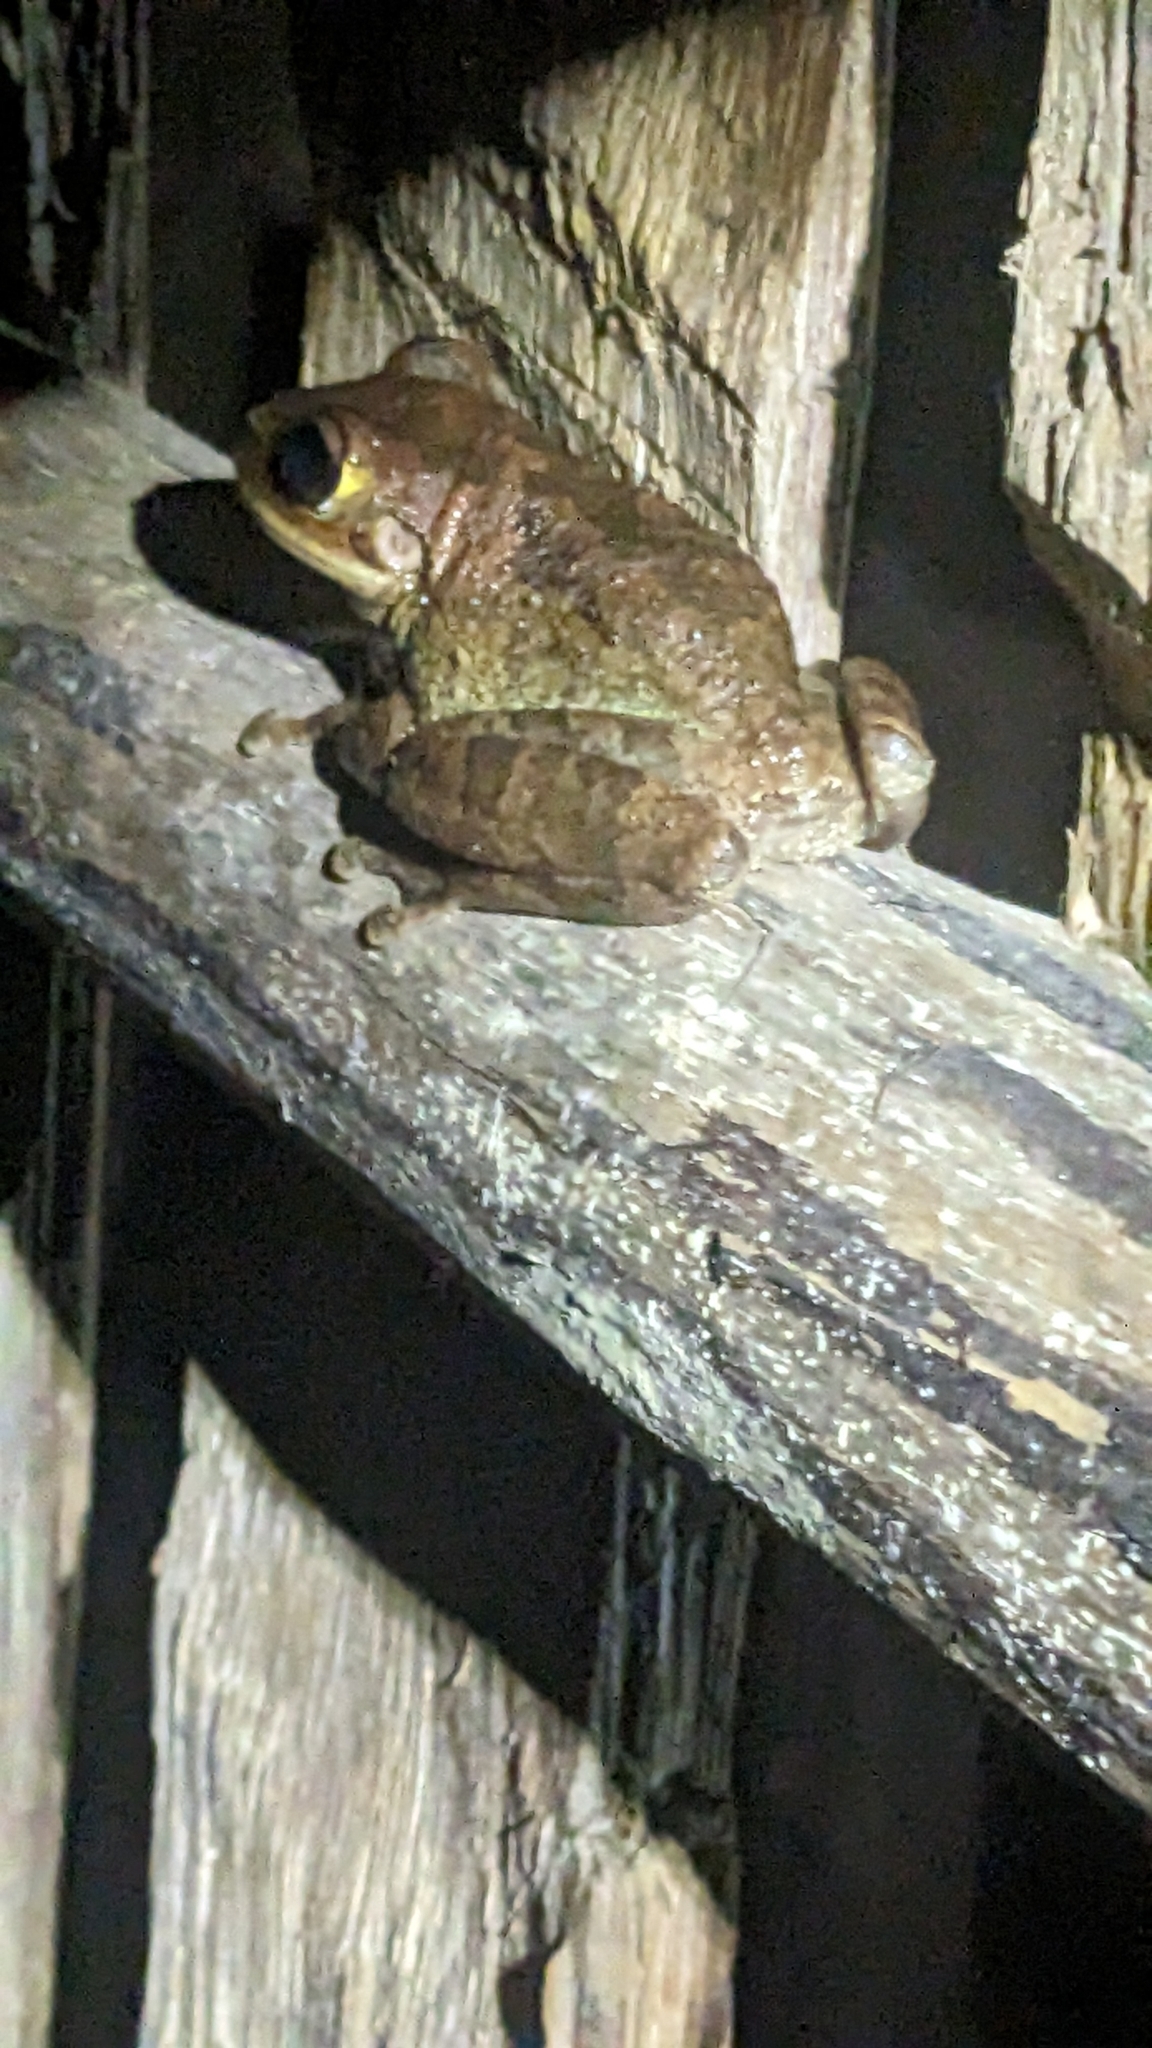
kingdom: Animalia
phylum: Chordata
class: Amphibia
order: Anura
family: Hylidae
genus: Osteopilus
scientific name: Osteopilus septentrionalis
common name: Cuban treefrog
